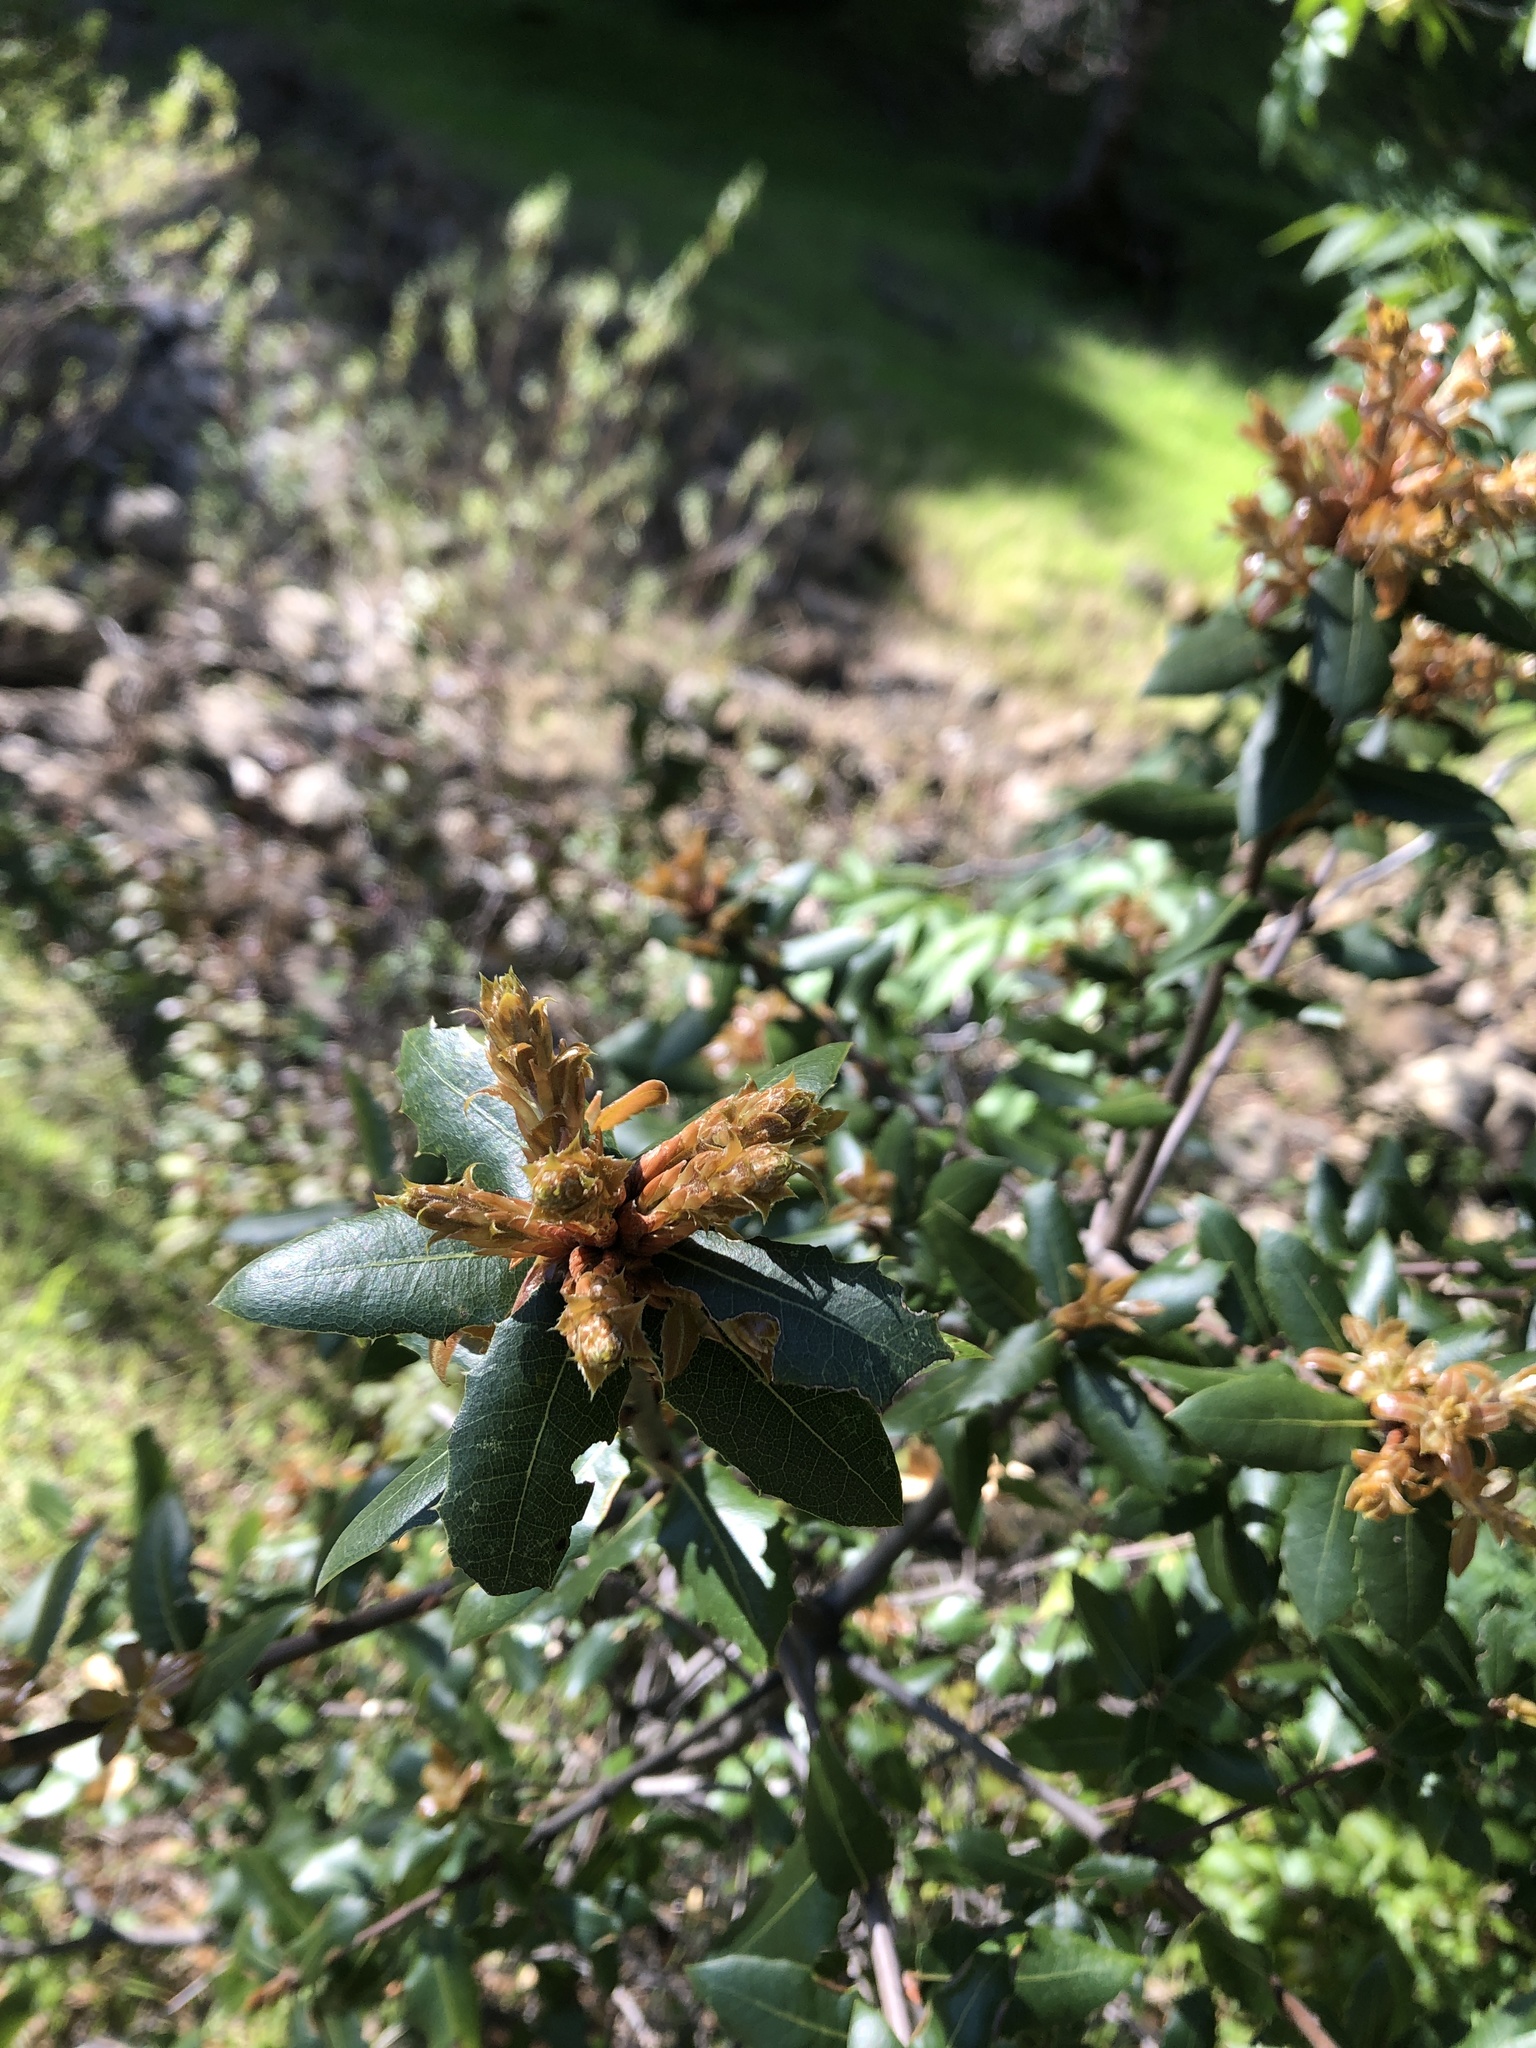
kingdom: Plantae
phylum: Tracheophyta
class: Magnoliopsida
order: Fagales
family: Fagaceae
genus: Quercus
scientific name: Quercus wislizeni
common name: Interior live oak
